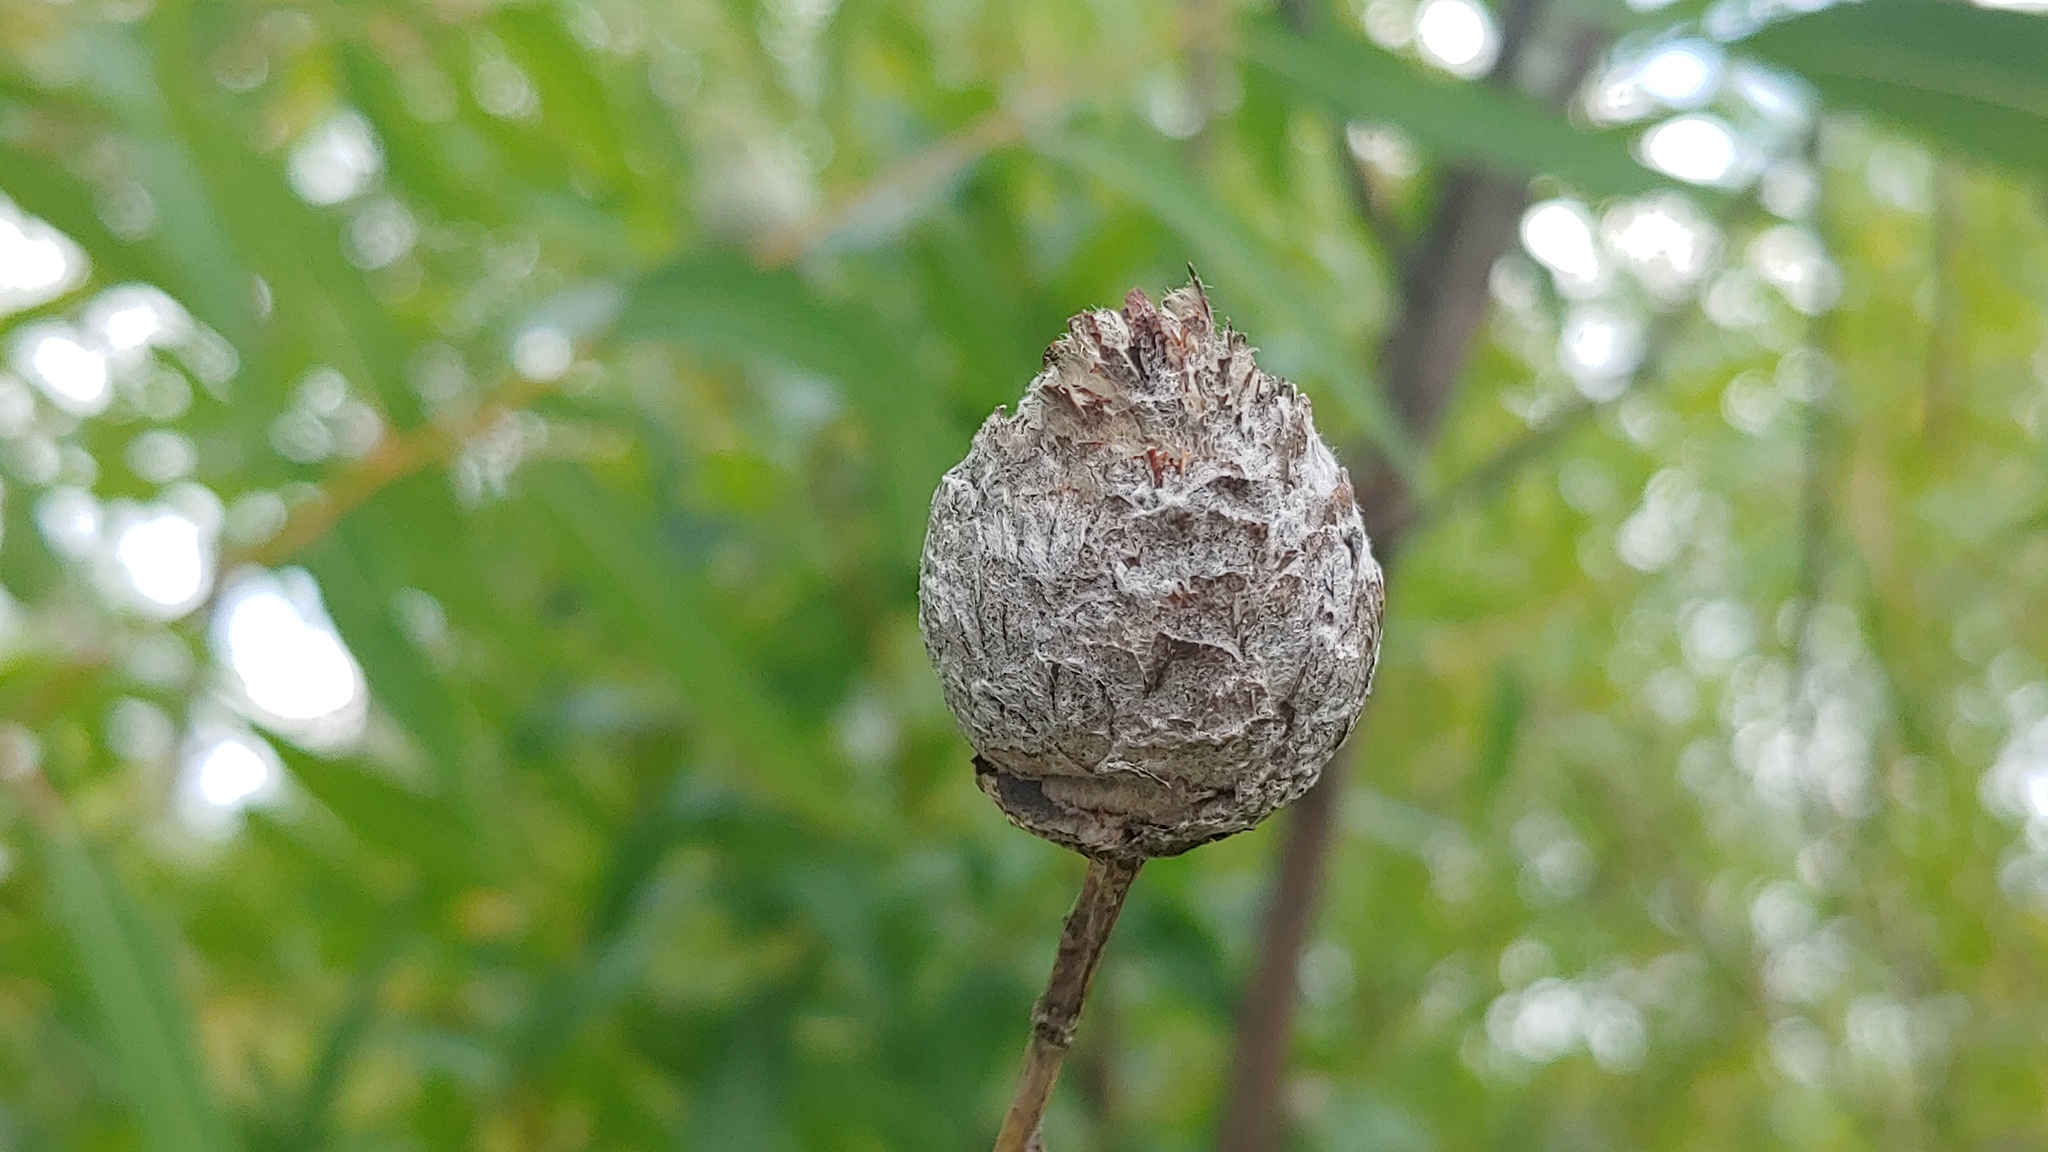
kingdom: Animalia
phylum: Arthropoda
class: Insecta
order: Diptera
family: Cecidomyiidae
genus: Rabdophaga
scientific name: Rabdophaga strobiloides
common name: Willow pinecone gall midge
